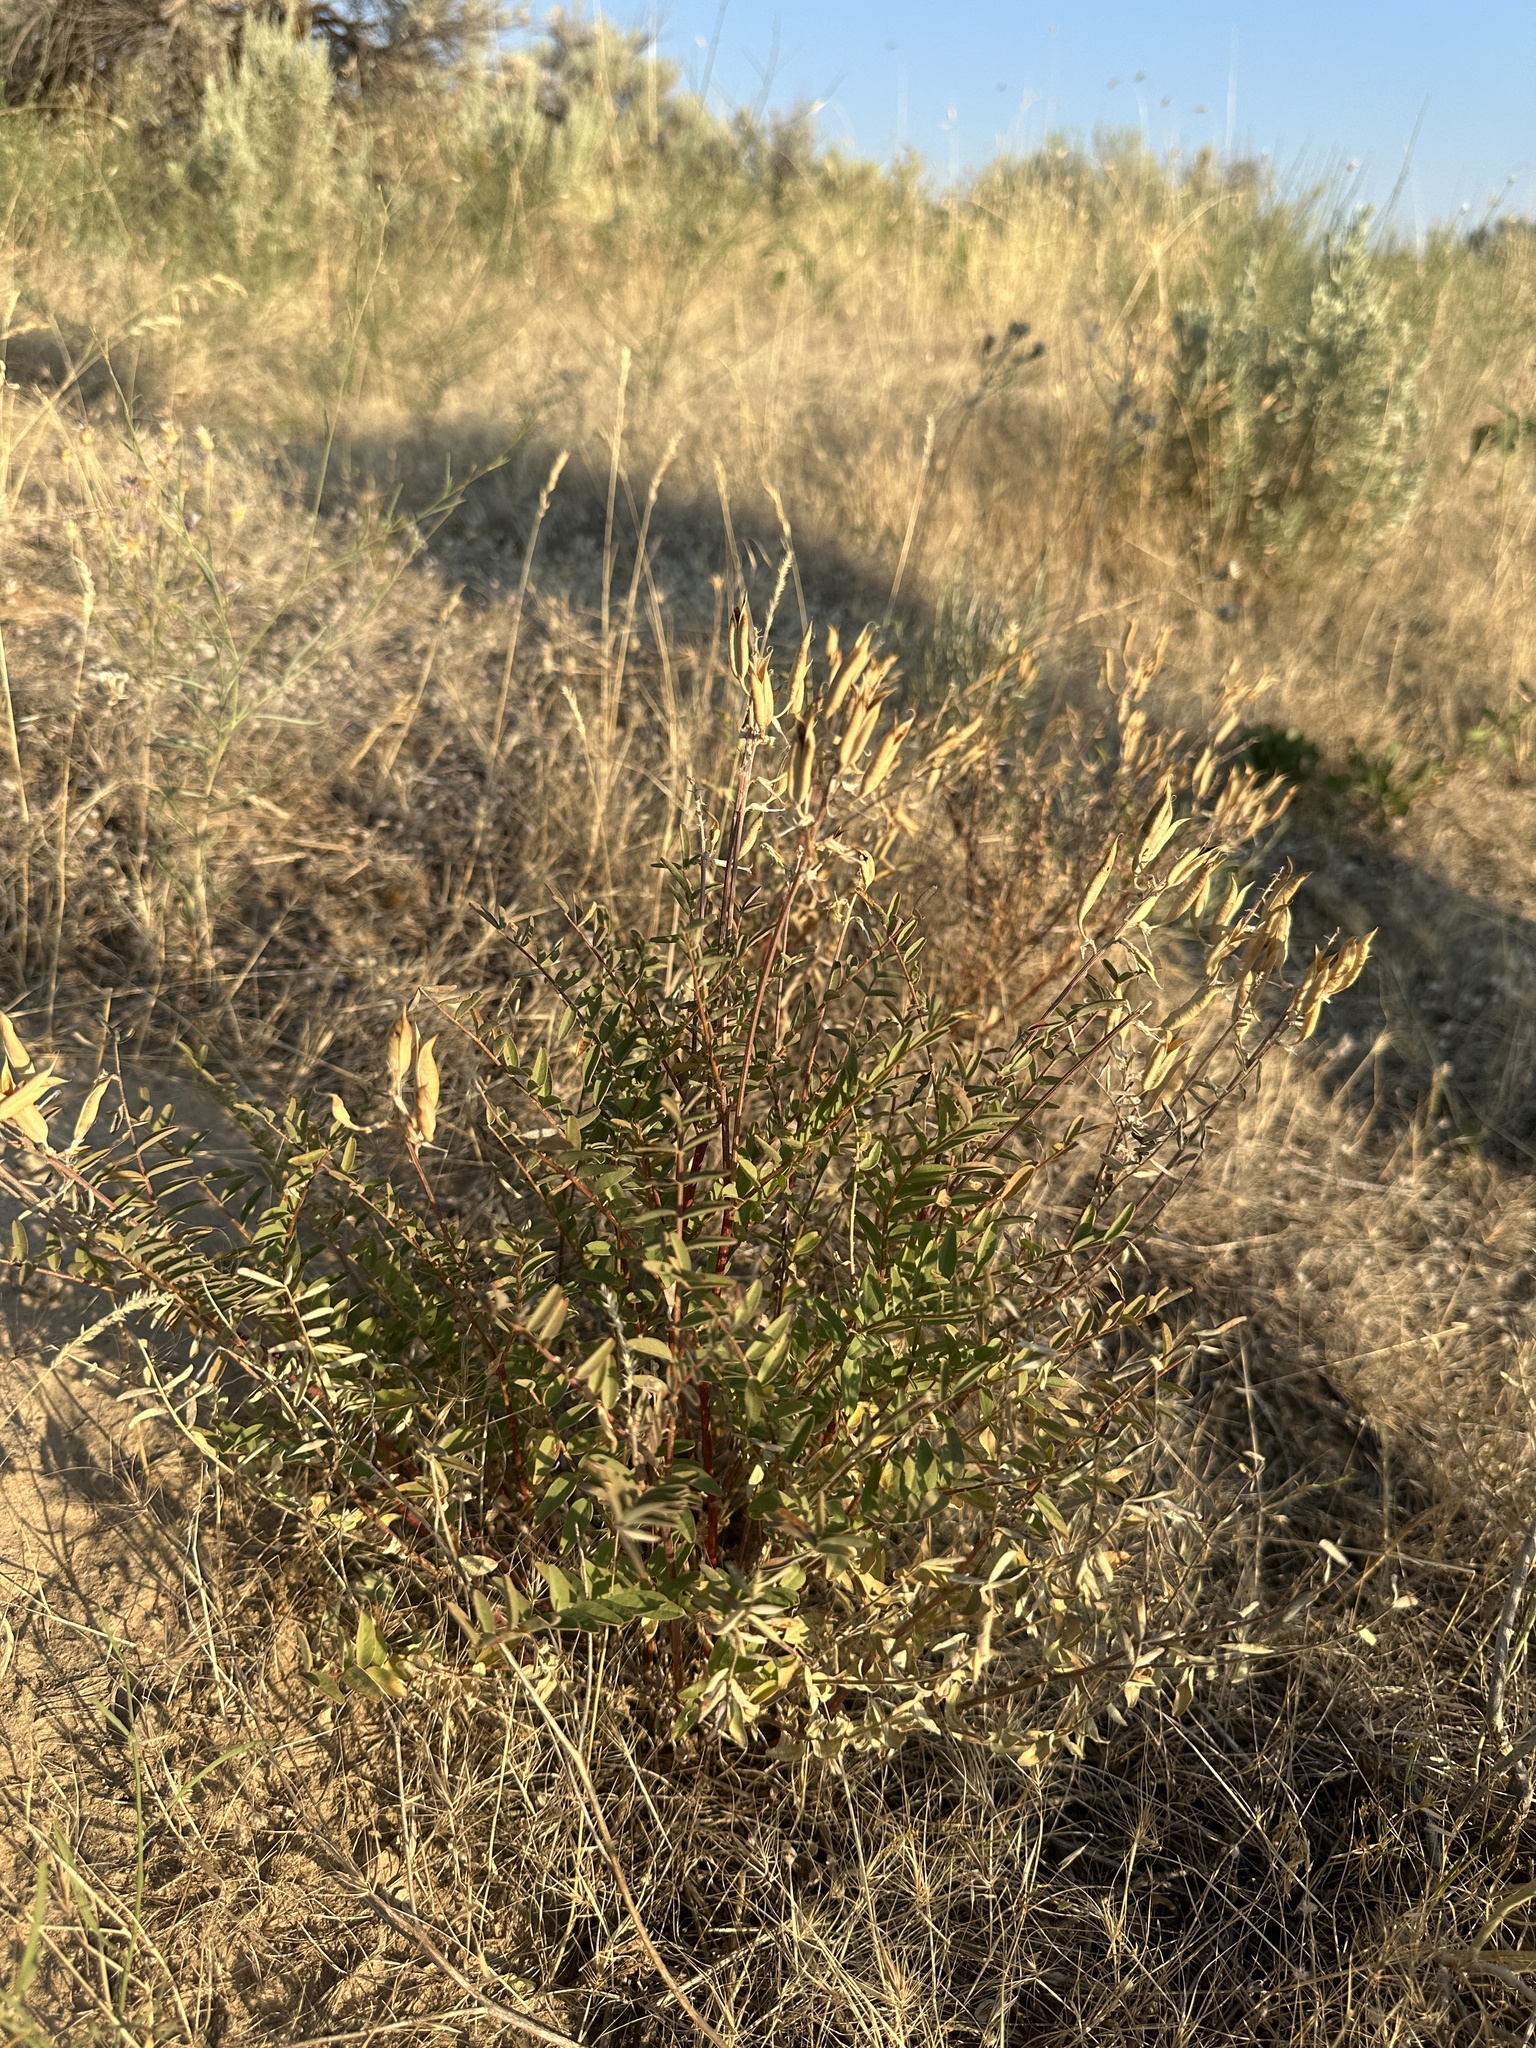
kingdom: Plantae
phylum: Tracheophyta
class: Magnoliopsida
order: Fabales
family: Fabaceae
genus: Astragalus
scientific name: Astragalus eremiticus
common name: Hermit milk-vetch
